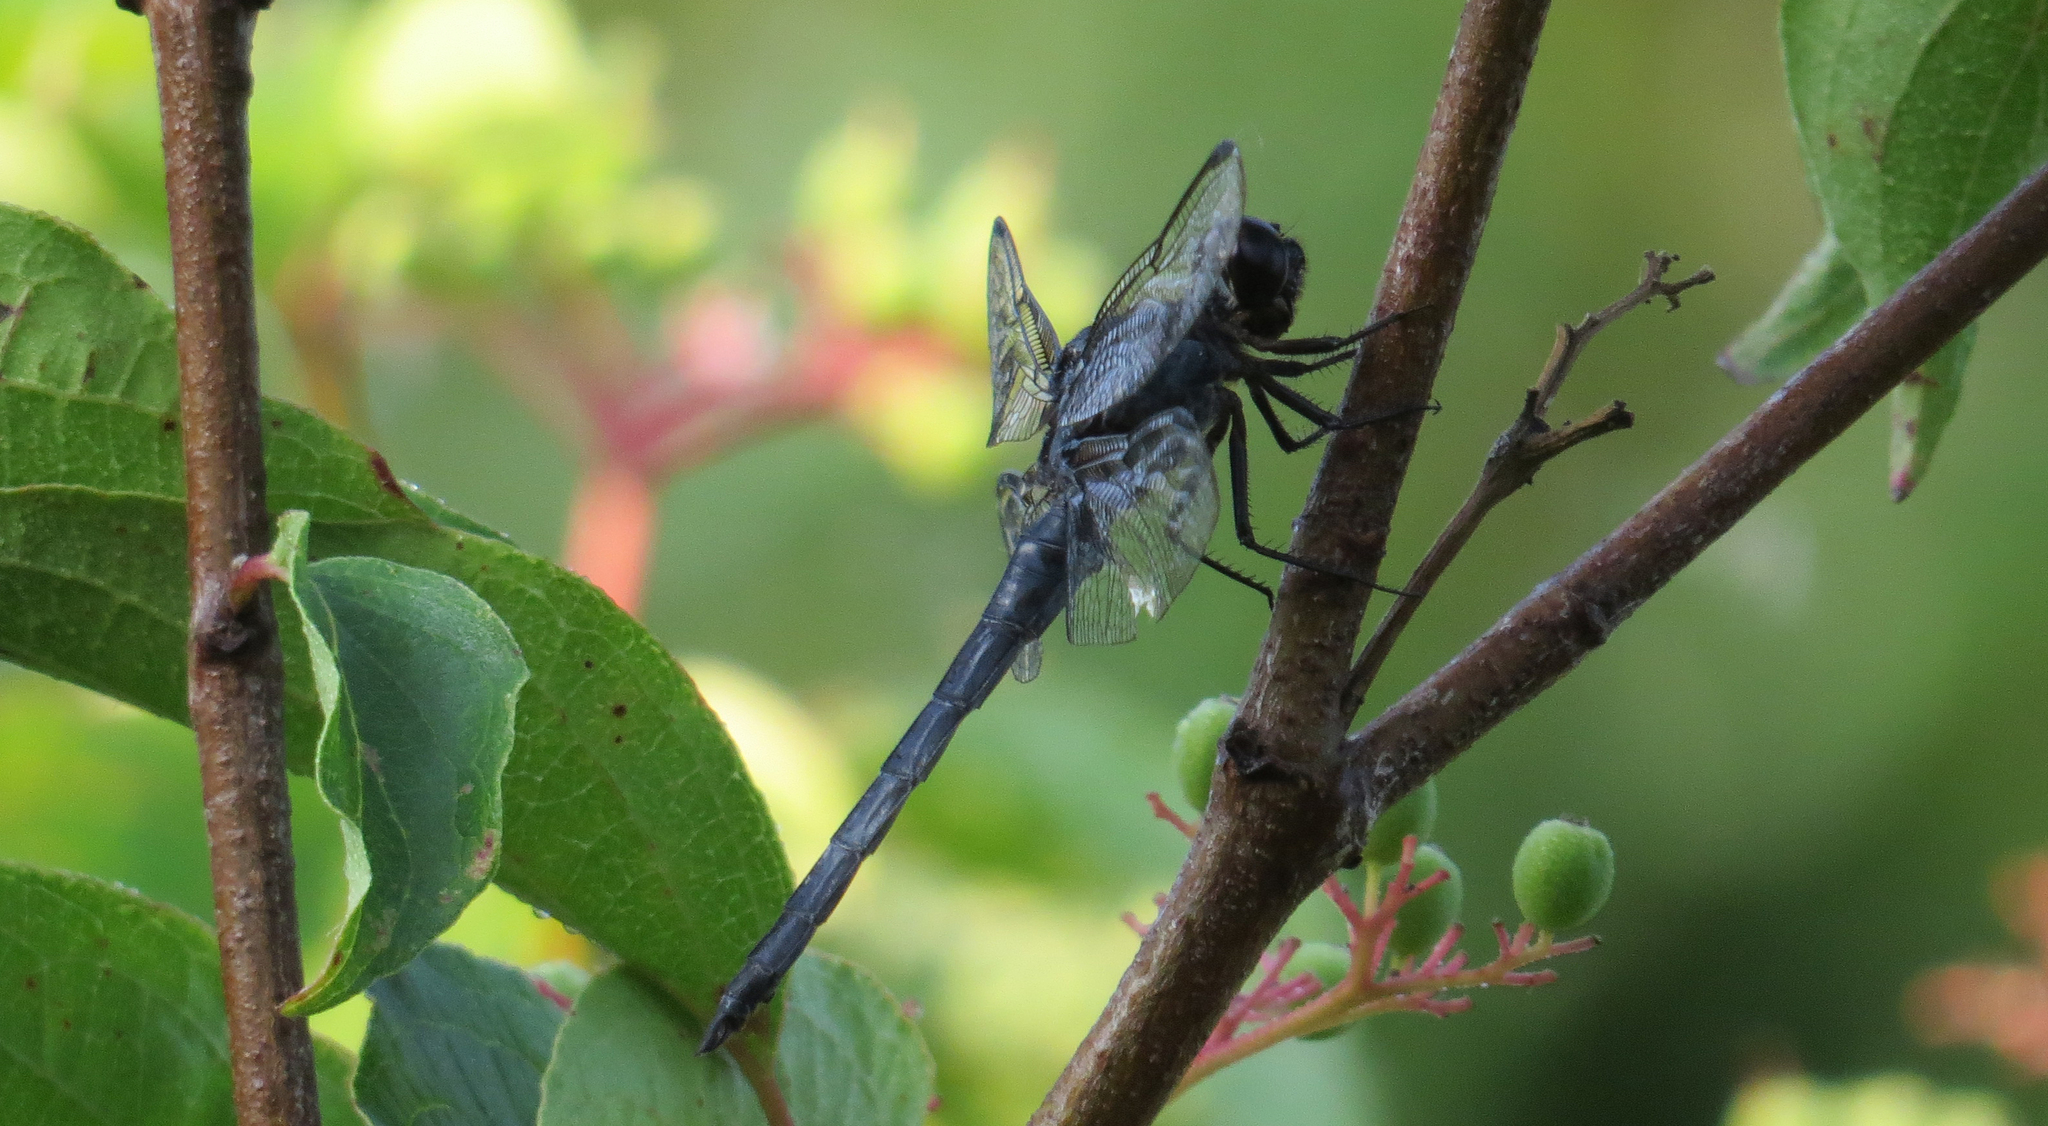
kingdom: Animalia
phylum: Arthropoda
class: Insecta
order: Odonata
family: Libellulidae
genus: Libellula
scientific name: Libellula incesta
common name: Slaty skimmer
